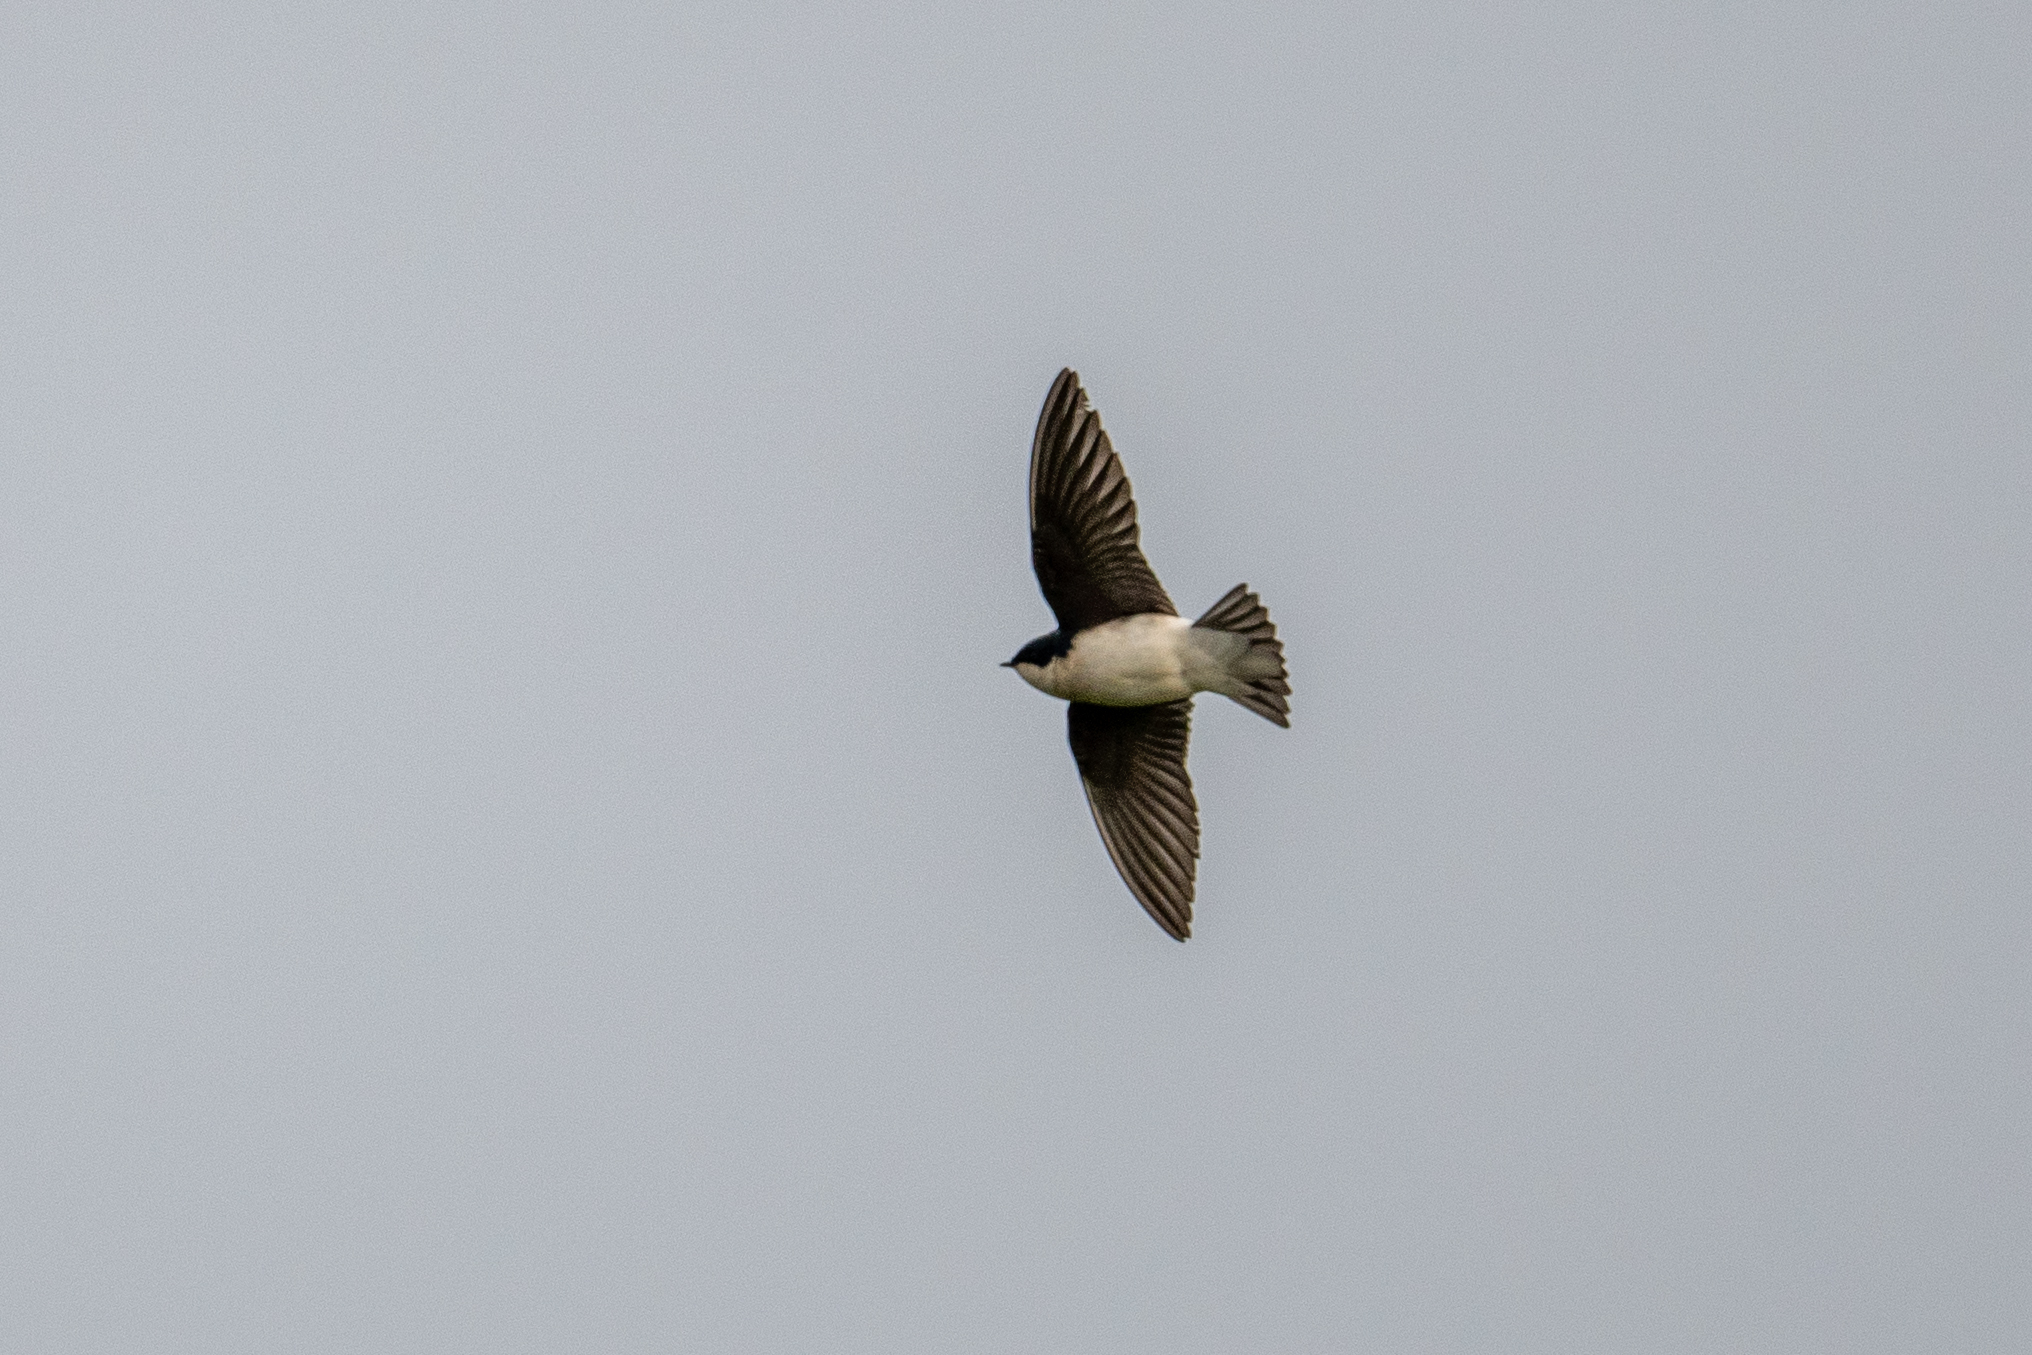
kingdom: Animalia
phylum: Chordata
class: Aves
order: Passeriformes
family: Hirundinidae
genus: Tachycineta
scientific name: Tachycineta bicolor
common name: Tree swallow
